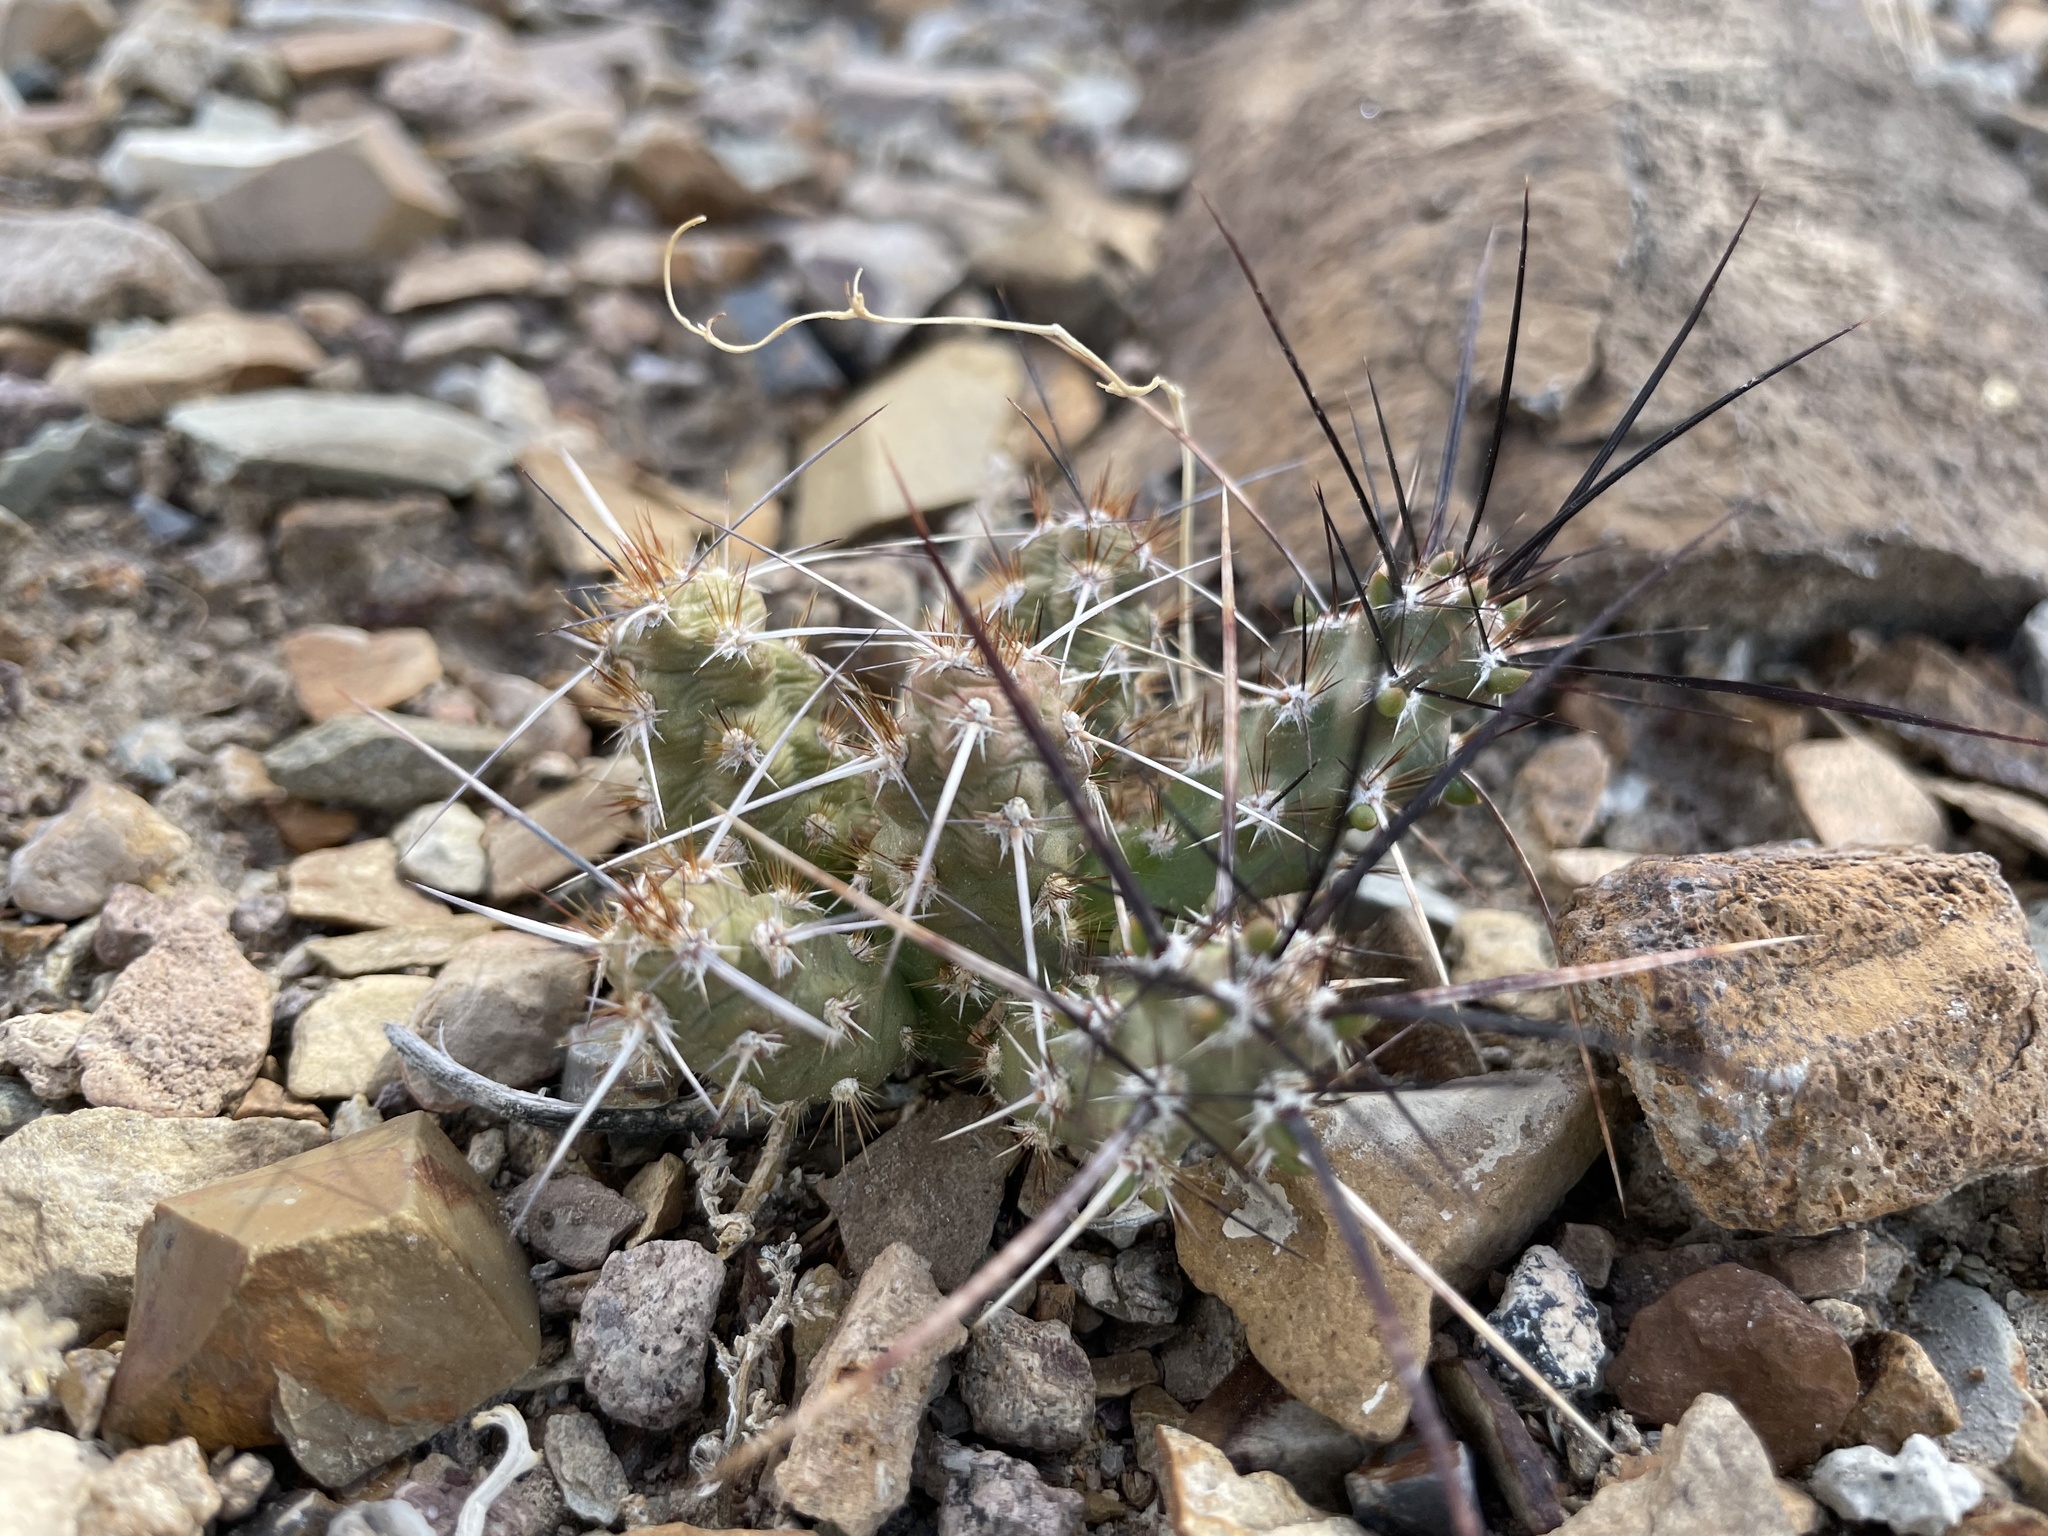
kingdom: Plantae
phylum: Tracheophyta
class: Magnoliopsida
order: Caryophyllales
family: Cactaceae
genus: Micropuntia
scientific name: Micropuntia pulchella
